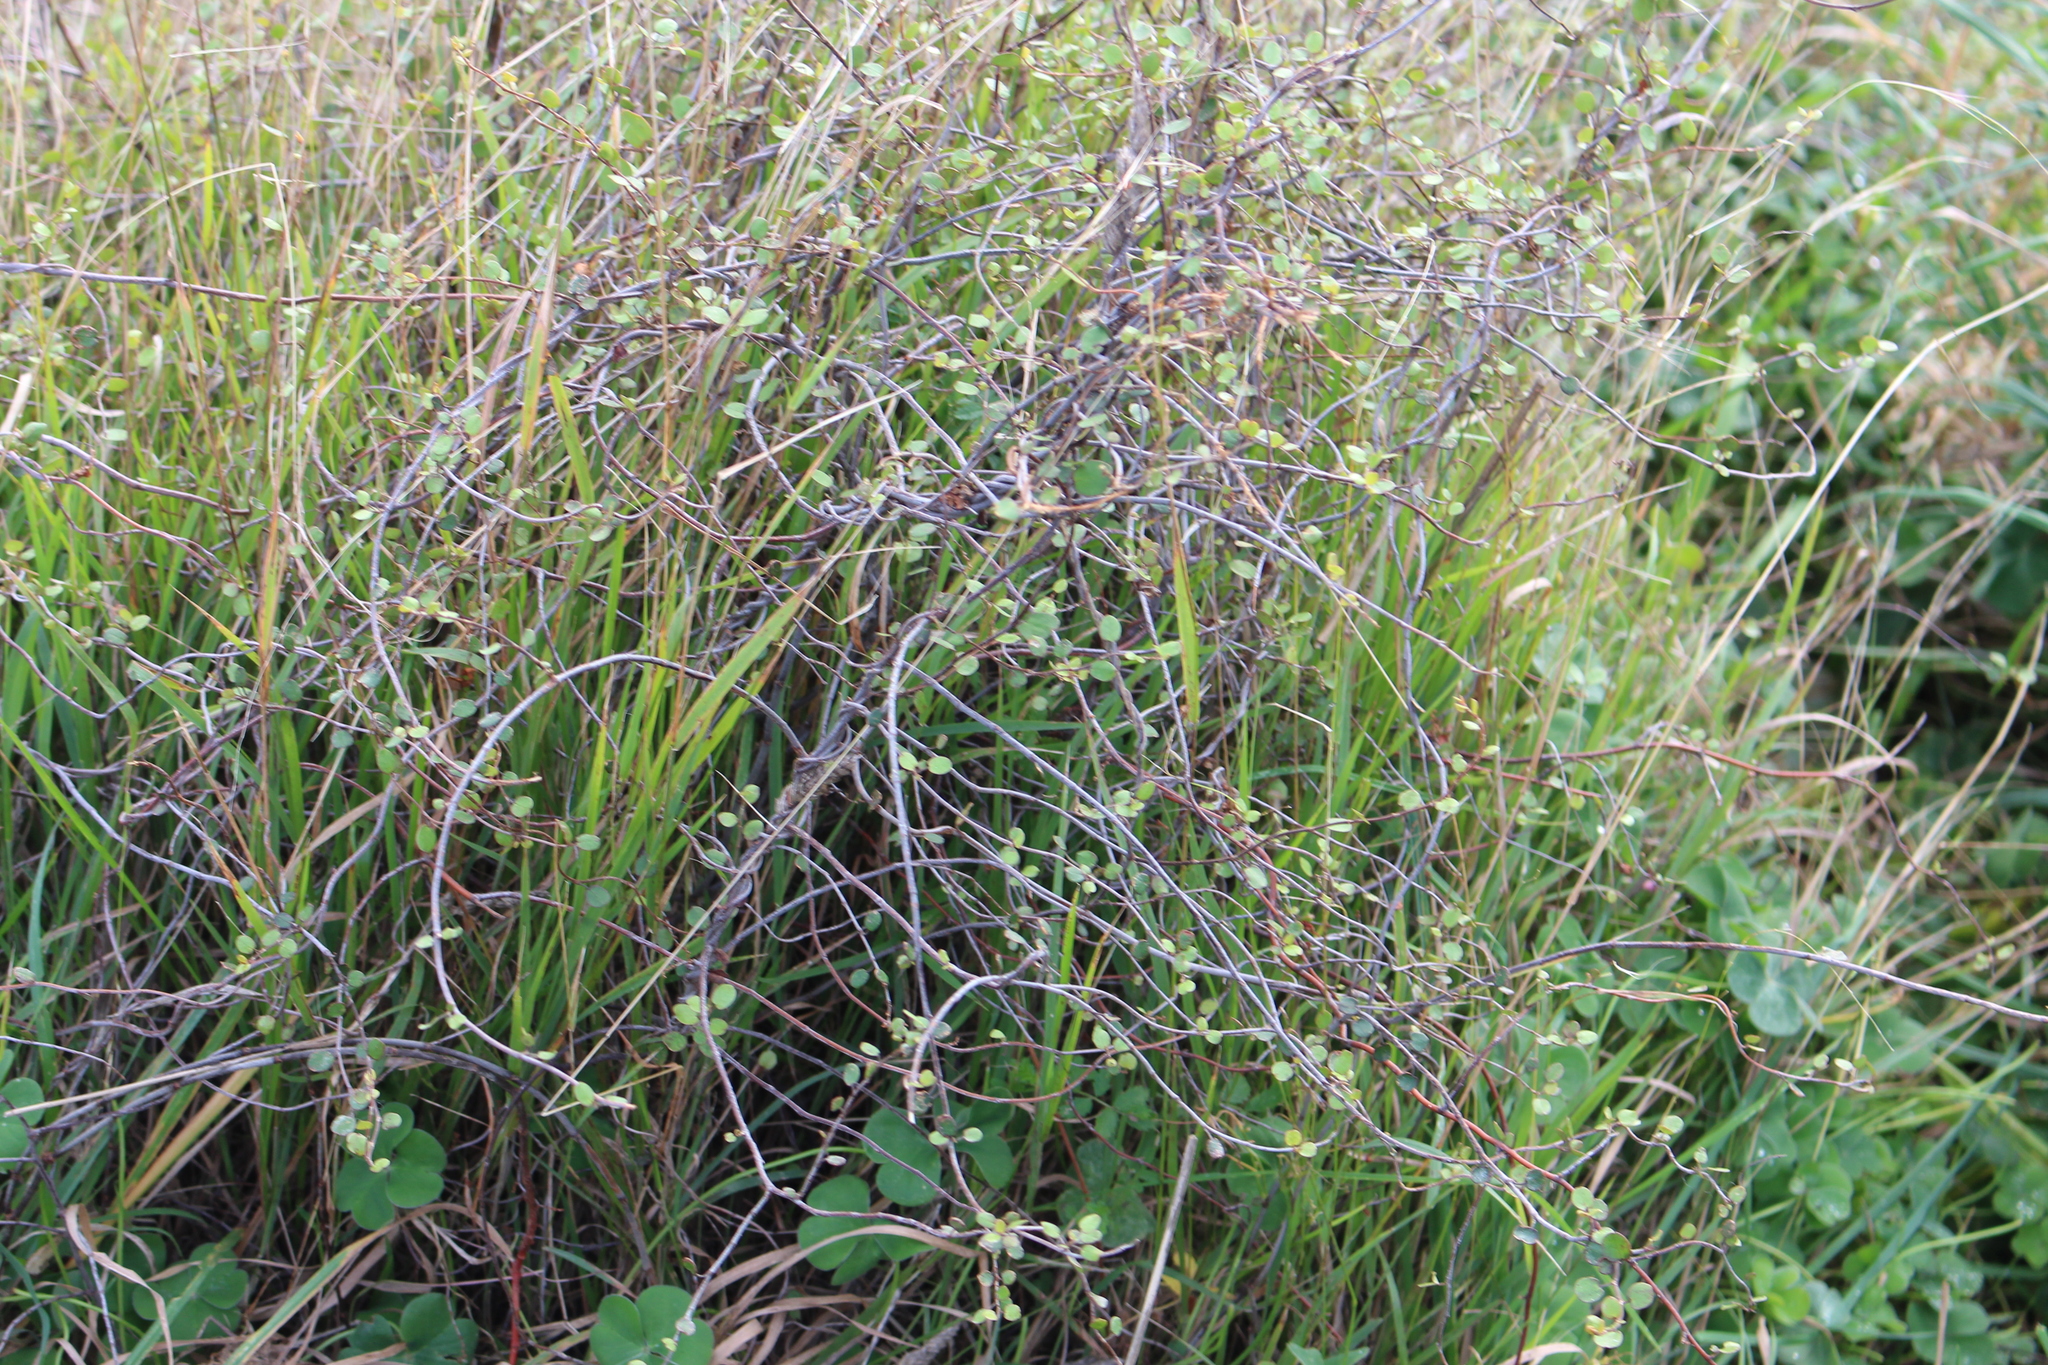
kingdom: Plantae
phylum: Tracheophyta
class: Magnoliopsida
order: Caryophyllales
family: Polygonaceae
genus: Muehlenbeckia
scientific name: Muehlenbeckia complexa
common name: Wireplant
